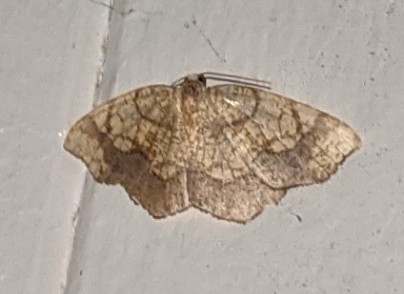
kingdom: Animalia
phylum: Arthropoda
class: Insecta
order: Lepidoptera
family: Geometridae
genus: Nematocampa
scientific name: Nematocampa resistaria
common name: Horned spanworm moth
